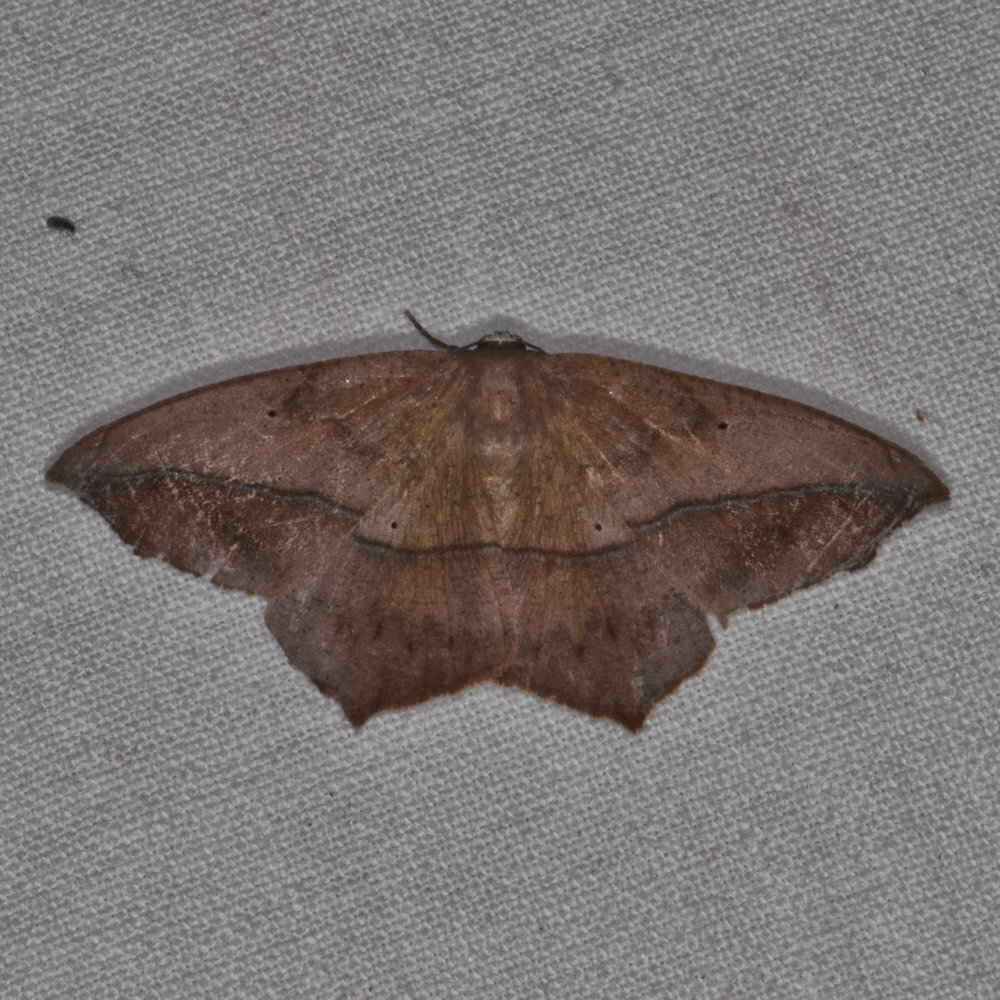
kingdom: Animalia
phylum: Arthropoda
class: Insecta
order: Lepidoptera
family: Geometridae
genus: Prochoerodes
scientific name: Prochoerodes lineola
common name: Large maple spanworm
